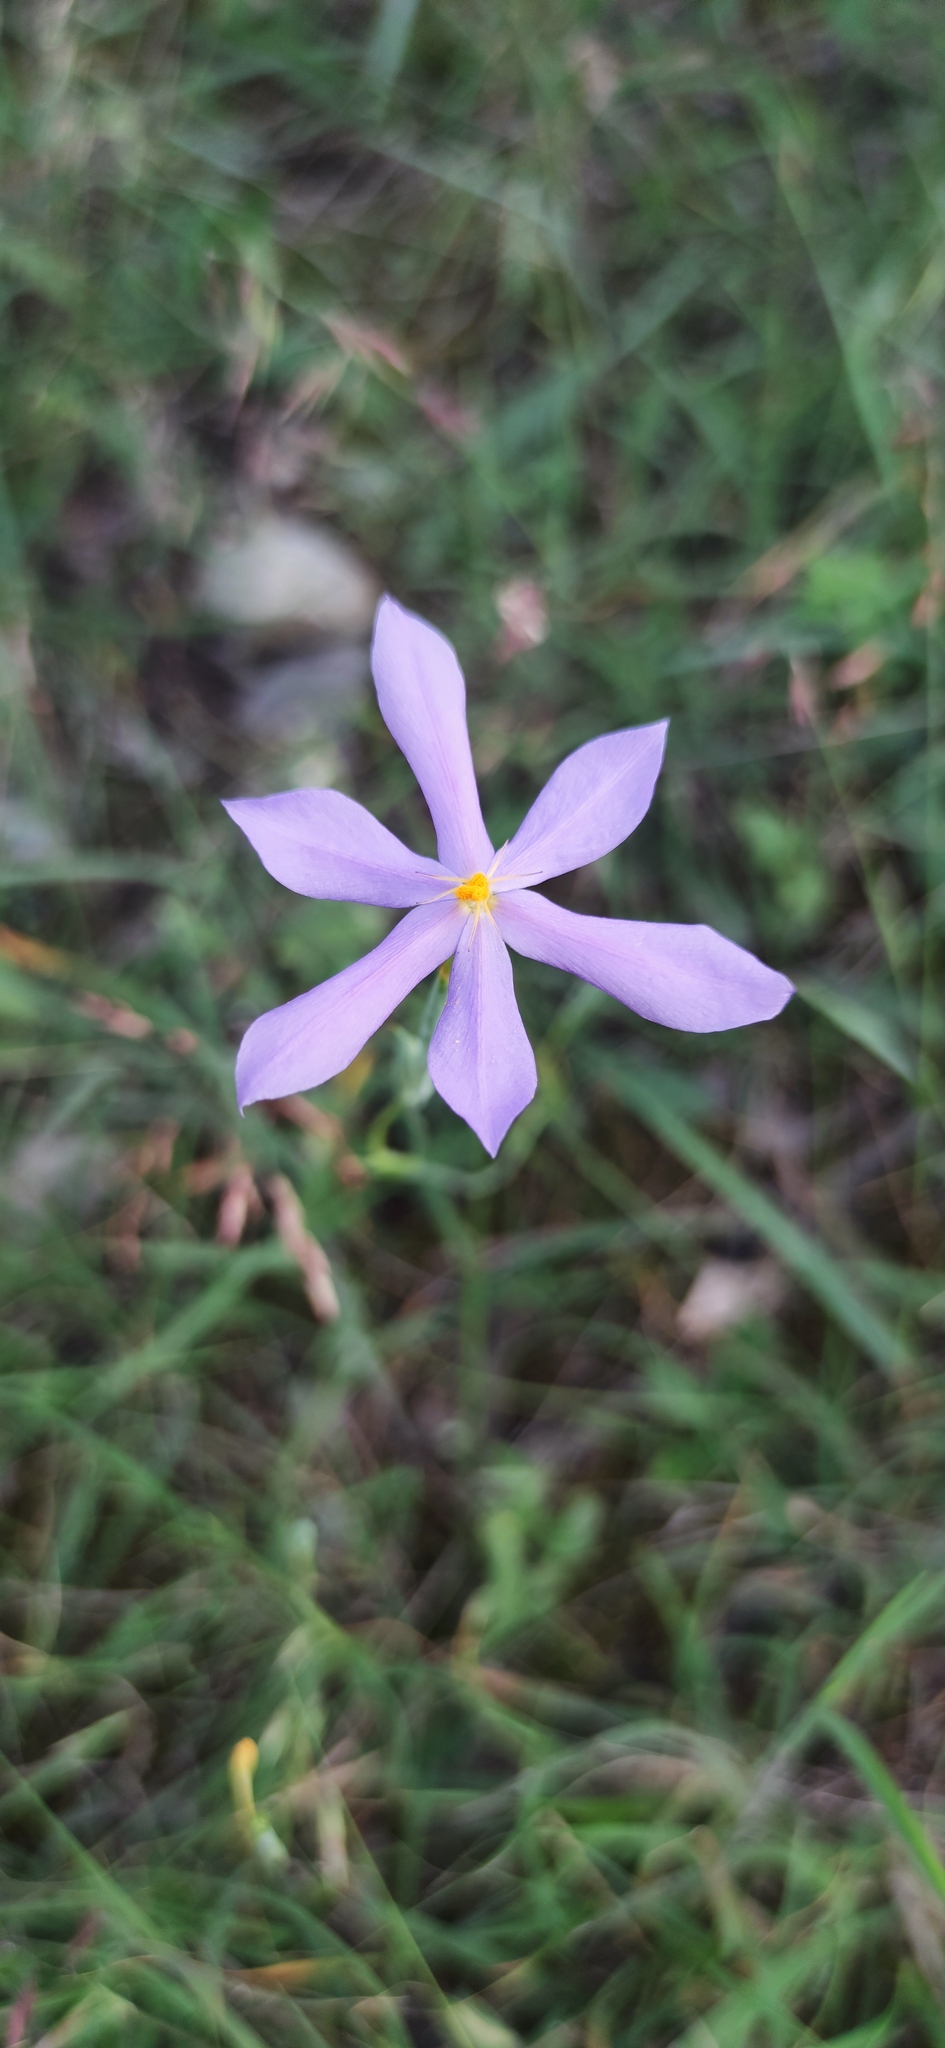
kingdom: Plantae
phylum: Tracheophyta
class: Liliopsida
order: Asparagales
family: Iridaceae
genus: Nemastylis
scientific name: Nemastylis tenuis
